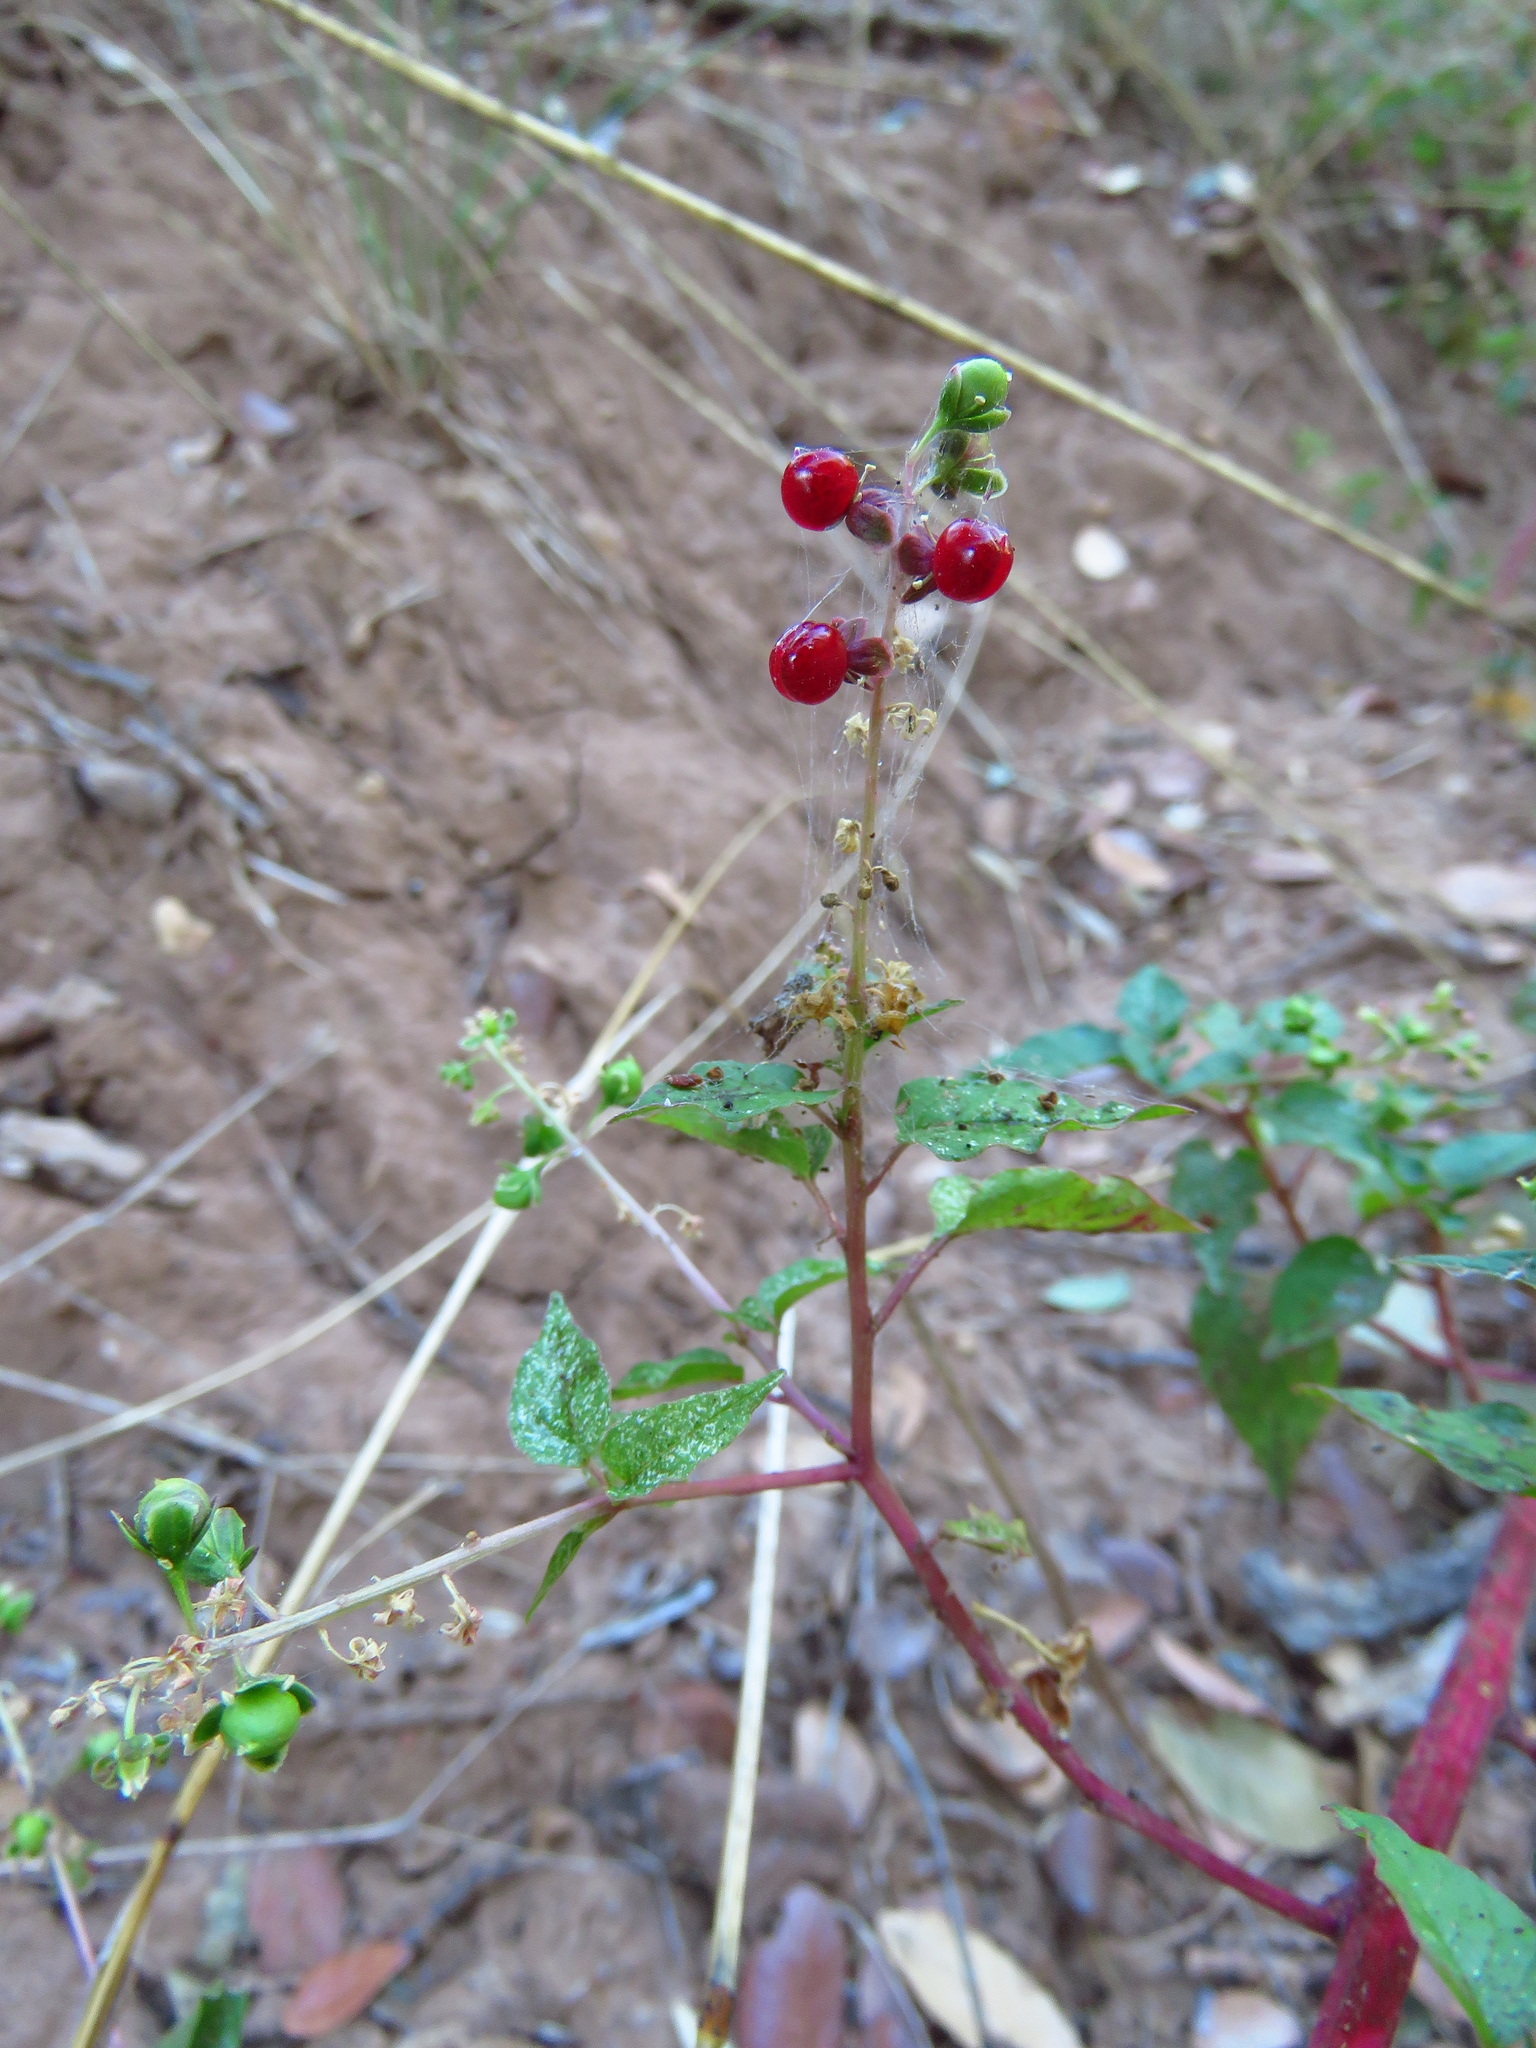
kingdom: Plantae
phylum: Tracheophyta
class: Magnoliopsida
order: Caryophyllales
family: Phytolaccaceae
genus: Rivina
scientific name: Rivina humilis
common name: Rougeplant
